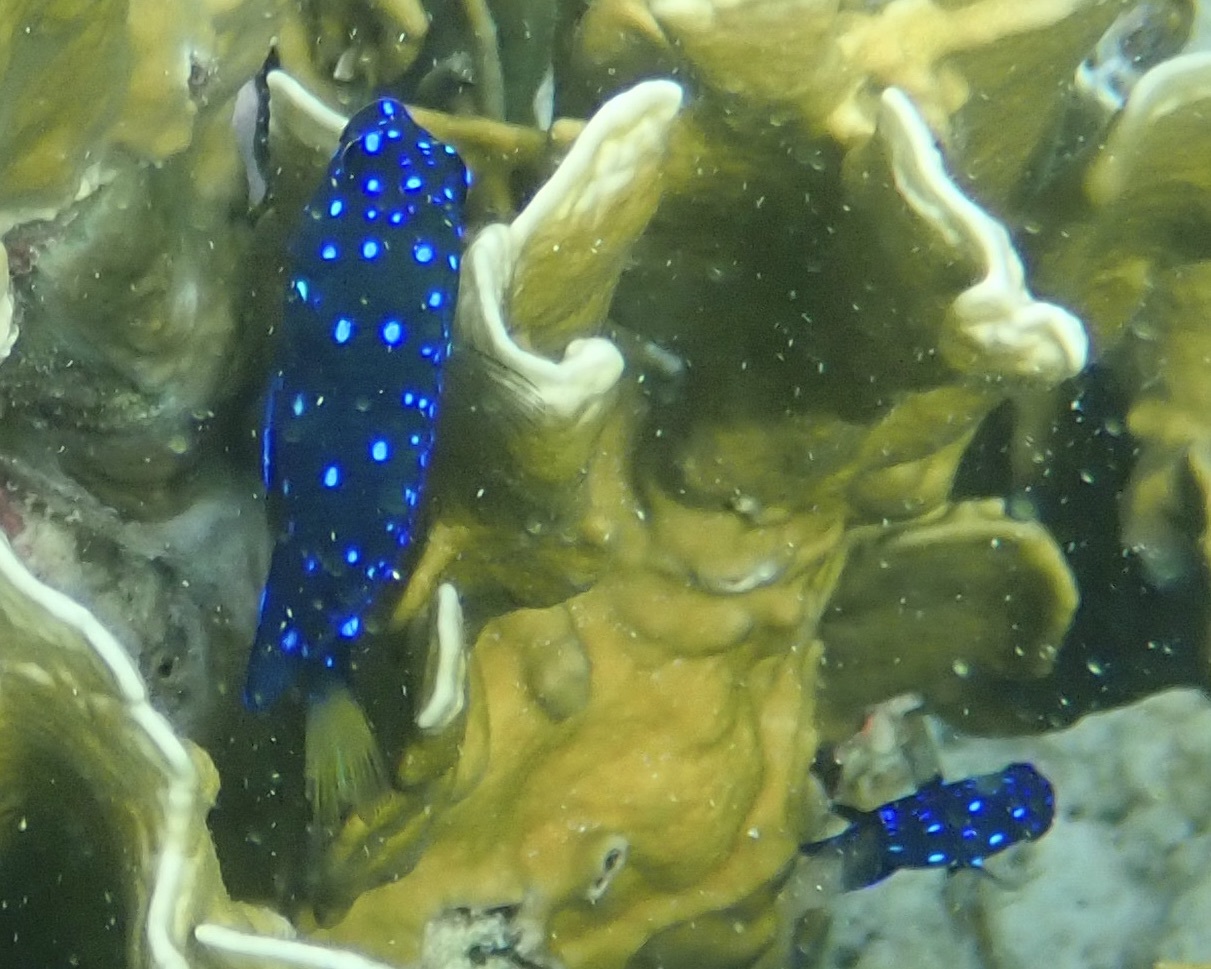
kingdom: Animalia
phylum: Chordata
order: Perciformes
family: Pomacentridae
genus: Microspathodon
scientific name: Microspathodon chrysurus
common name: Yellowtail damselfish
